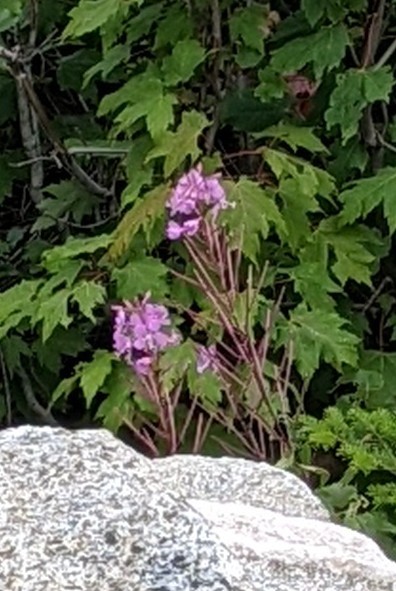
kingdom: Plantae
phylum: Tracheophyta
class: Magnoliopsida
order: Myrtales
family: Onagraceae
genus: Chamaenerion
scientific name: Chamaenerion angustifolium
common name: Fireweed
